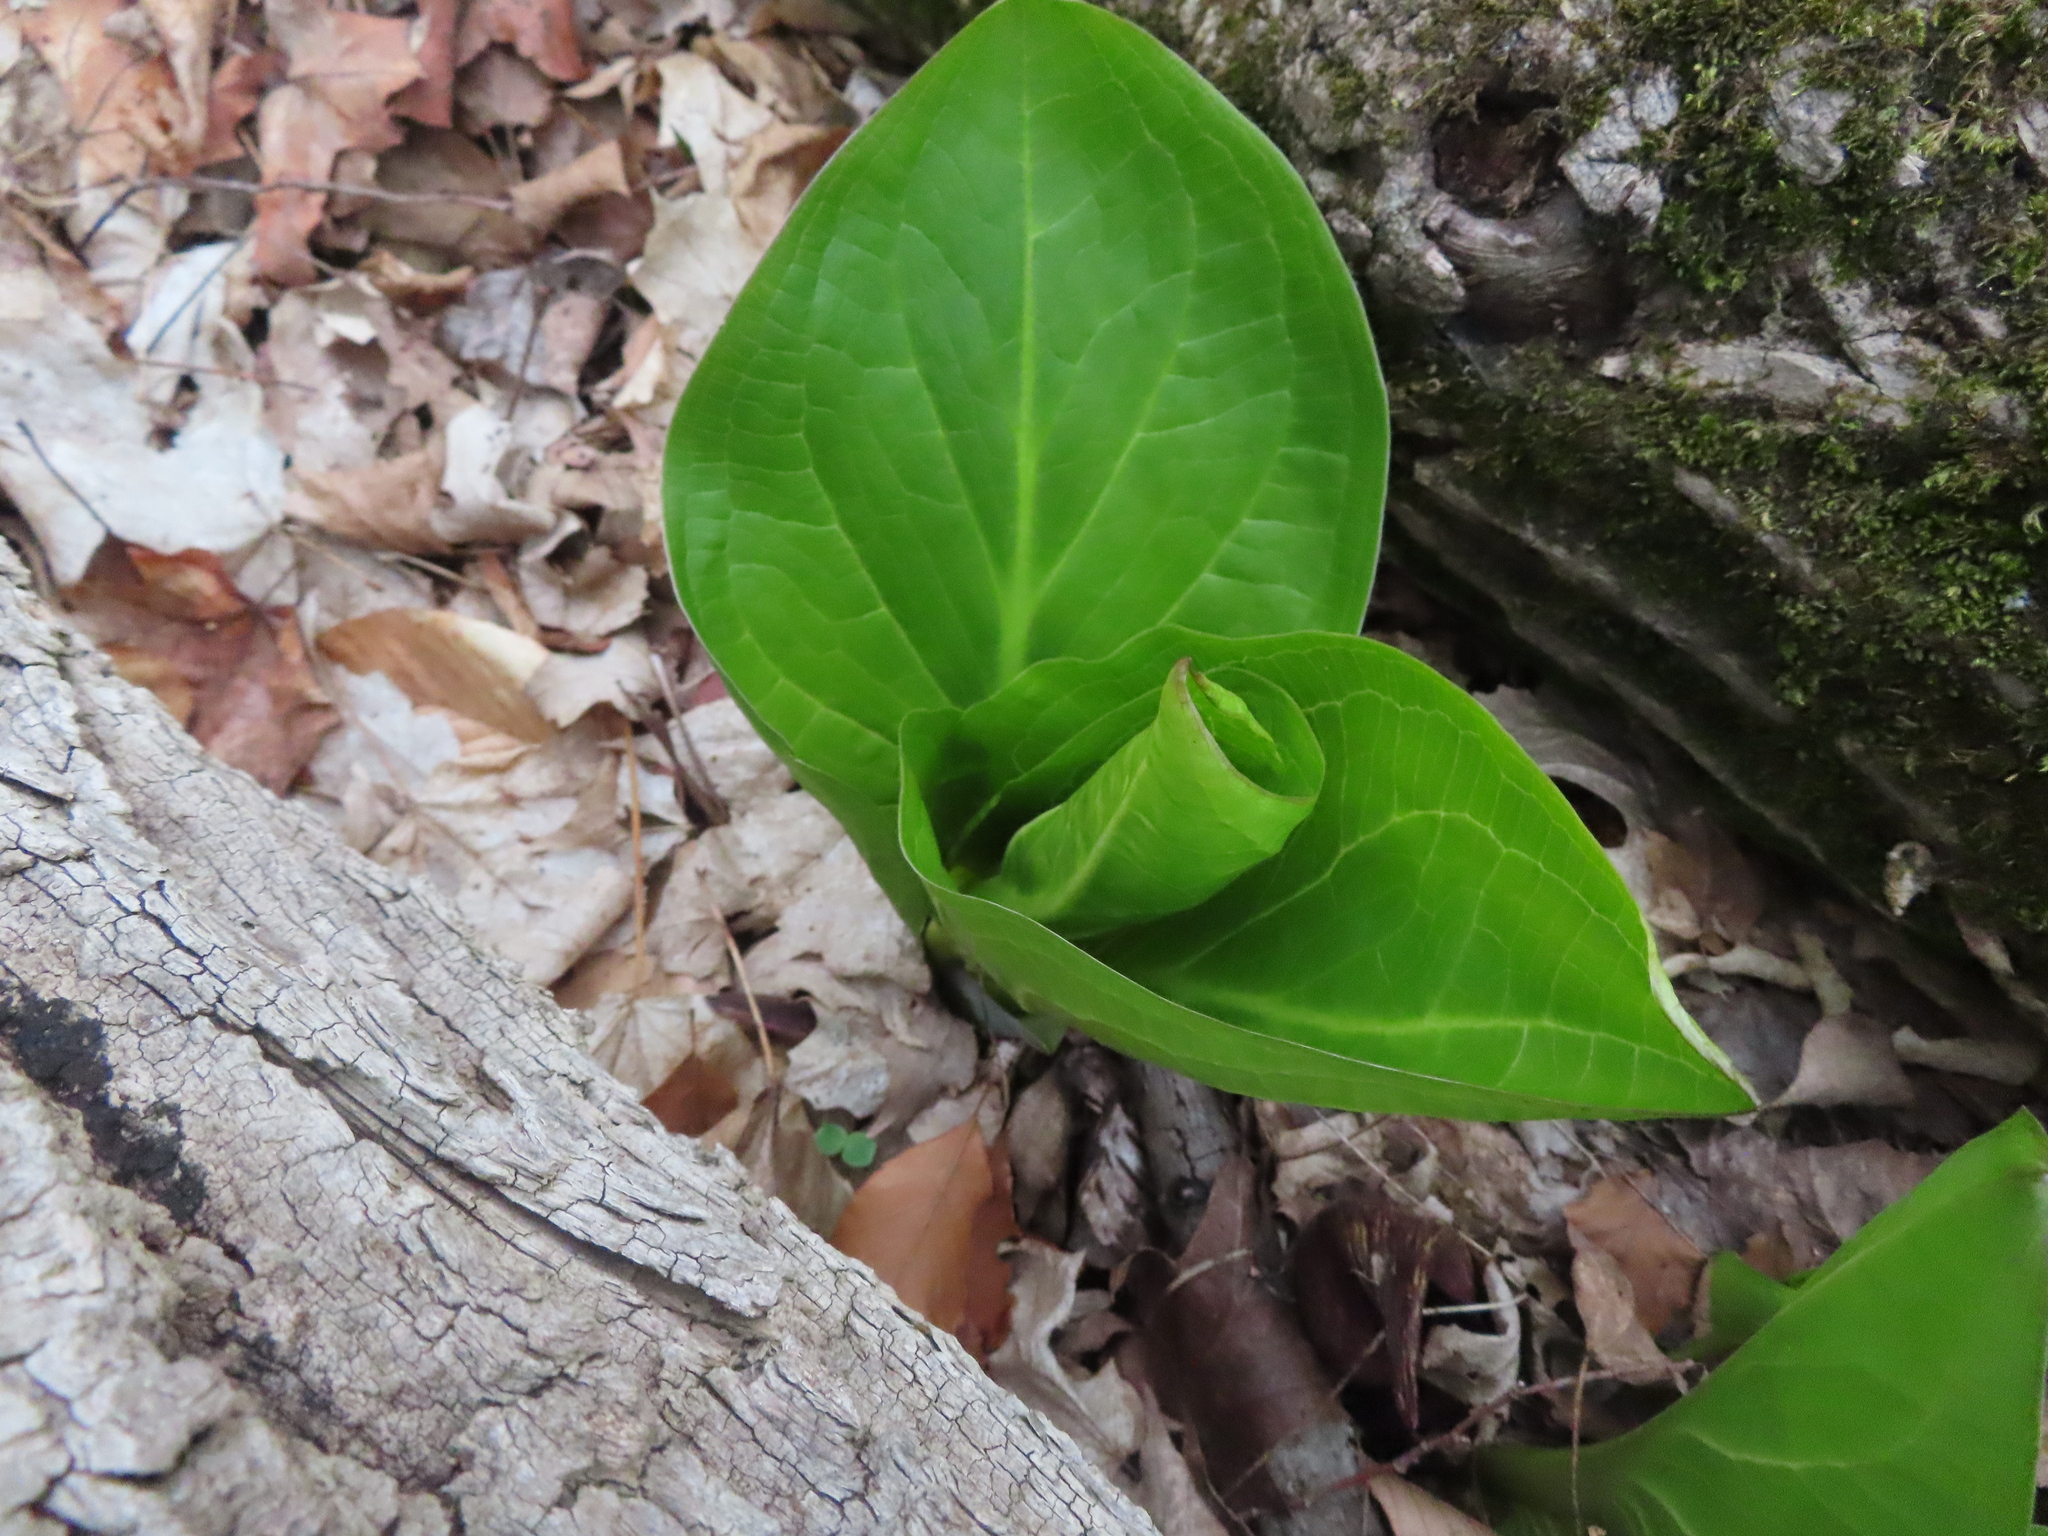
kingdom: Plantae
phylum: Tracheophyta
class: Liliopsida
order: Alismatales
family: Araceae
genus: Symplocarpus
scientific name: Symplocarpus foetidus
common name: Eastern skunk cabbage
